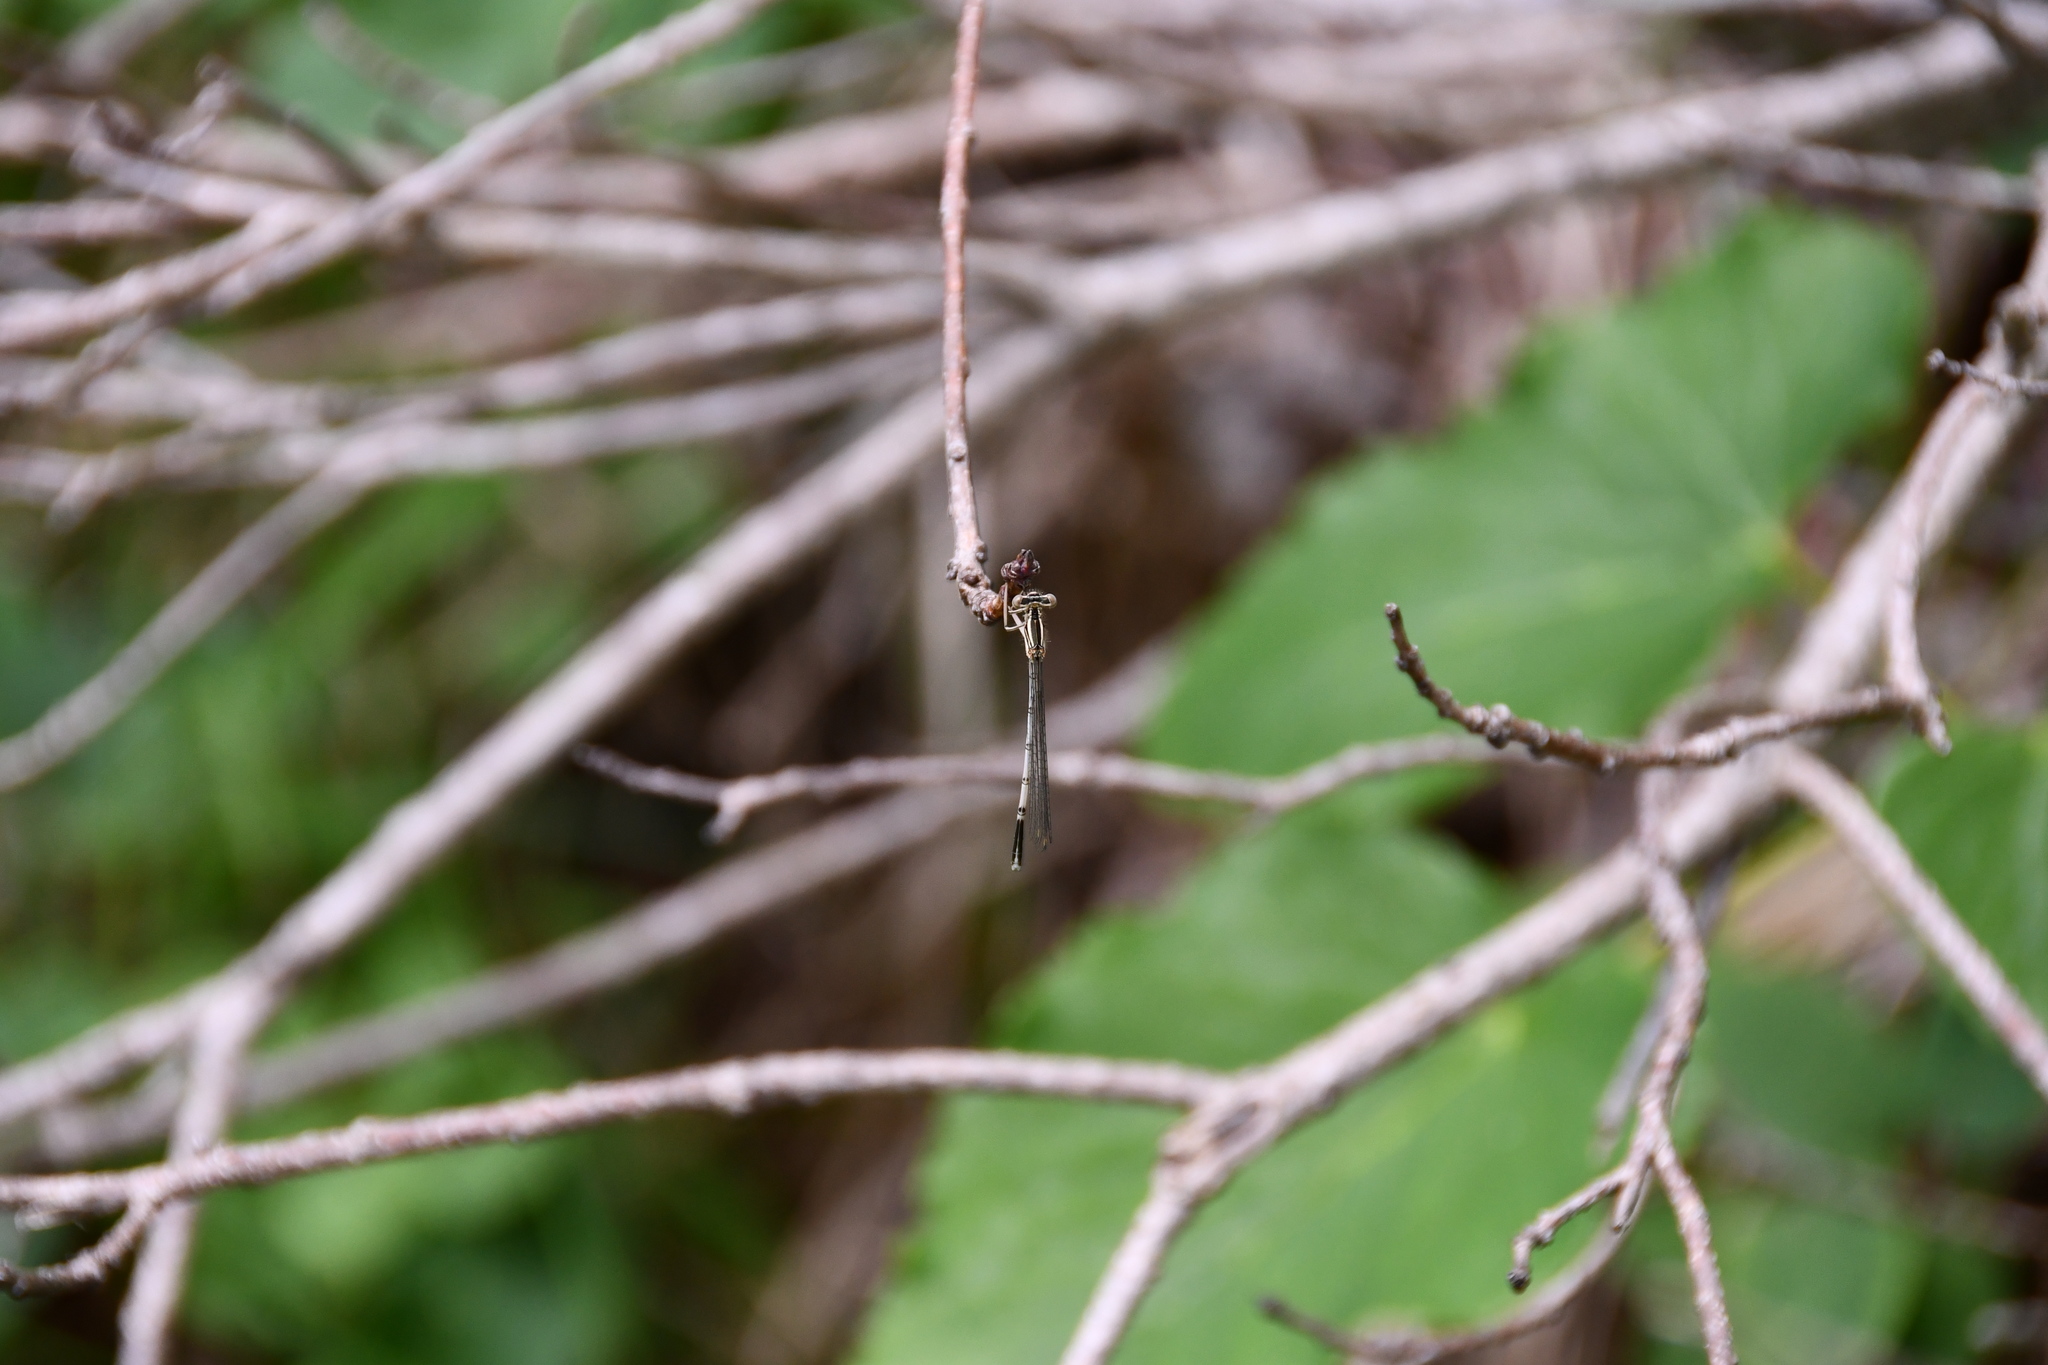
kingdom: Animalia
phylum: Arthropoda
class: Insecta
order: Odonata
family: Platycnemididae
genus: Platycnemis
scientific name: Platycnemis pennipes
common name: White-legged damselfly
